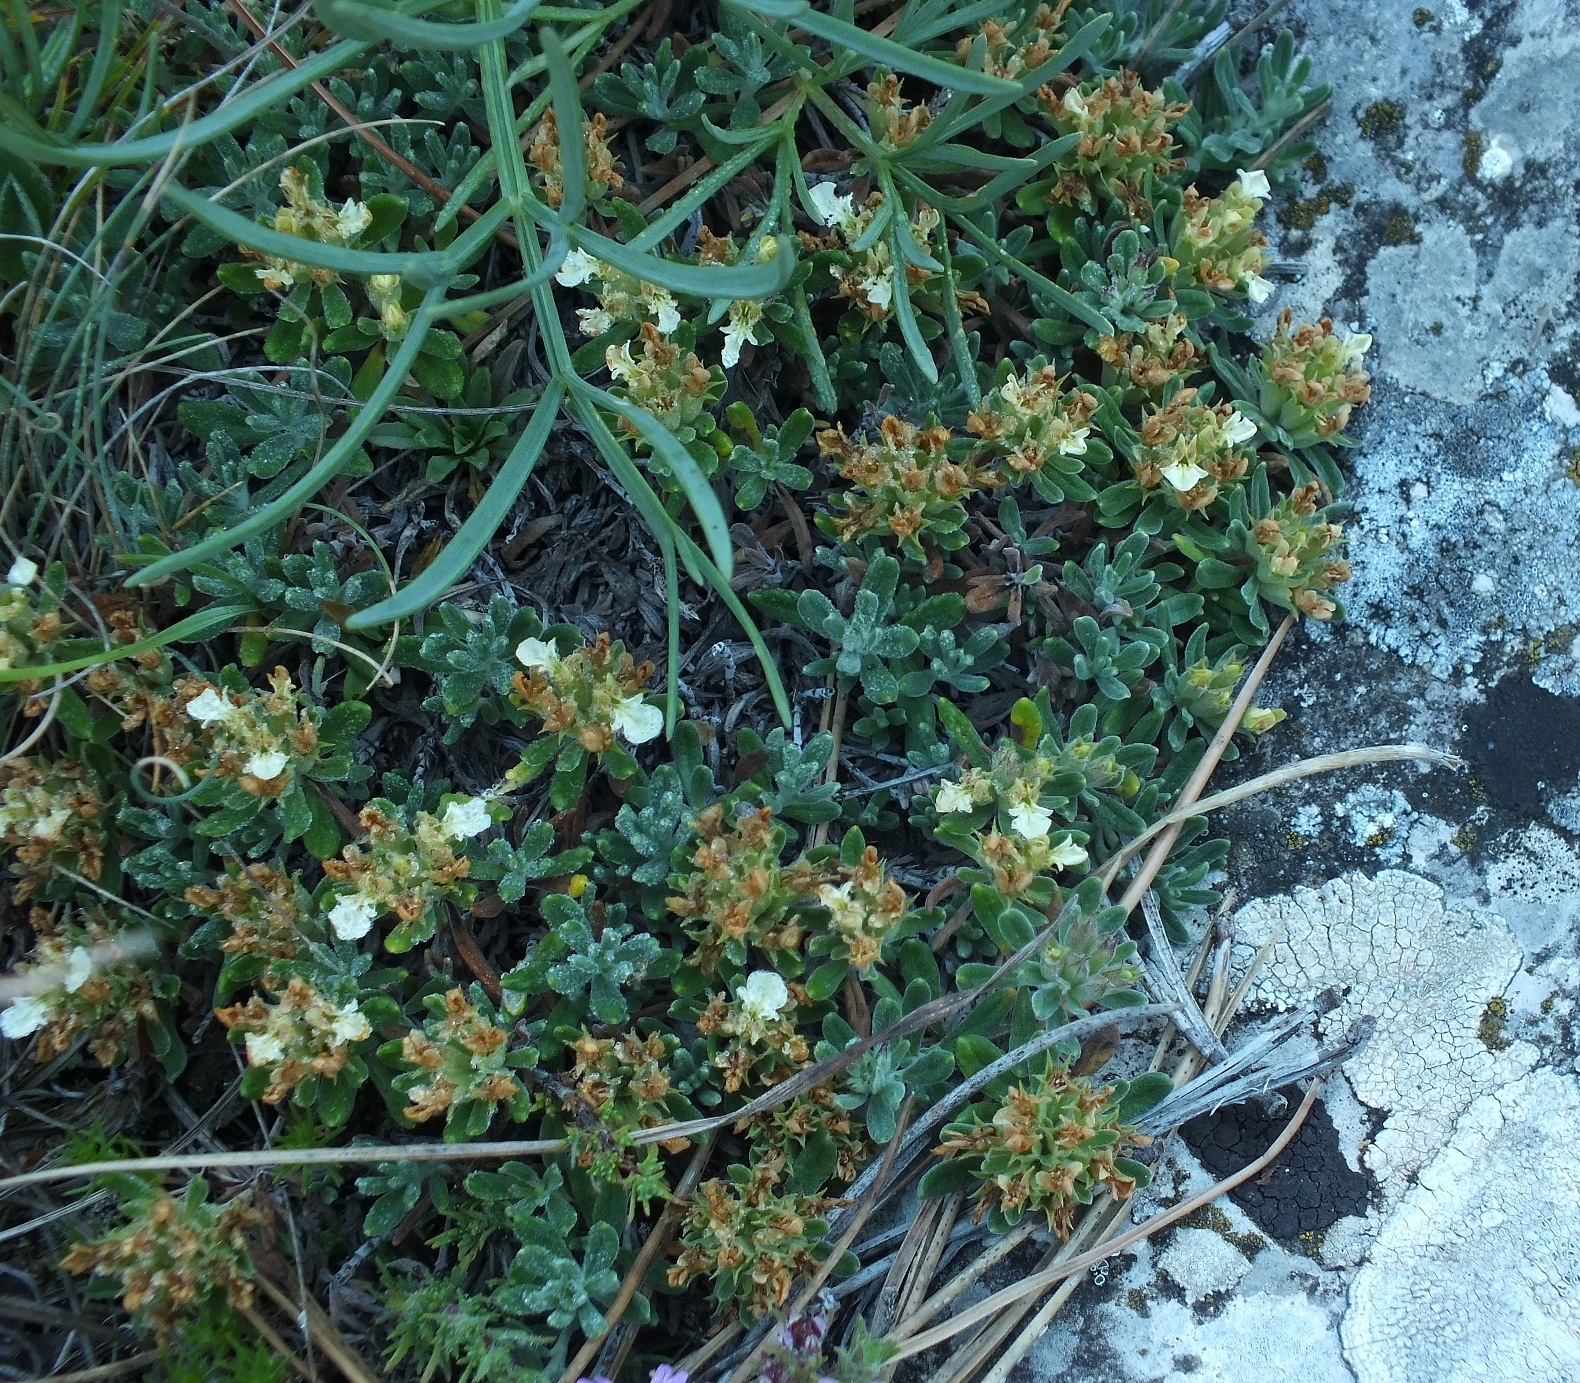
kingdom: Plantae
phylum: Tracheophyta
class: Magnoliopsida
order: Lamiales
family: Lamiaceae
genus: Teucrium
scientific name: Teucrium montanum
